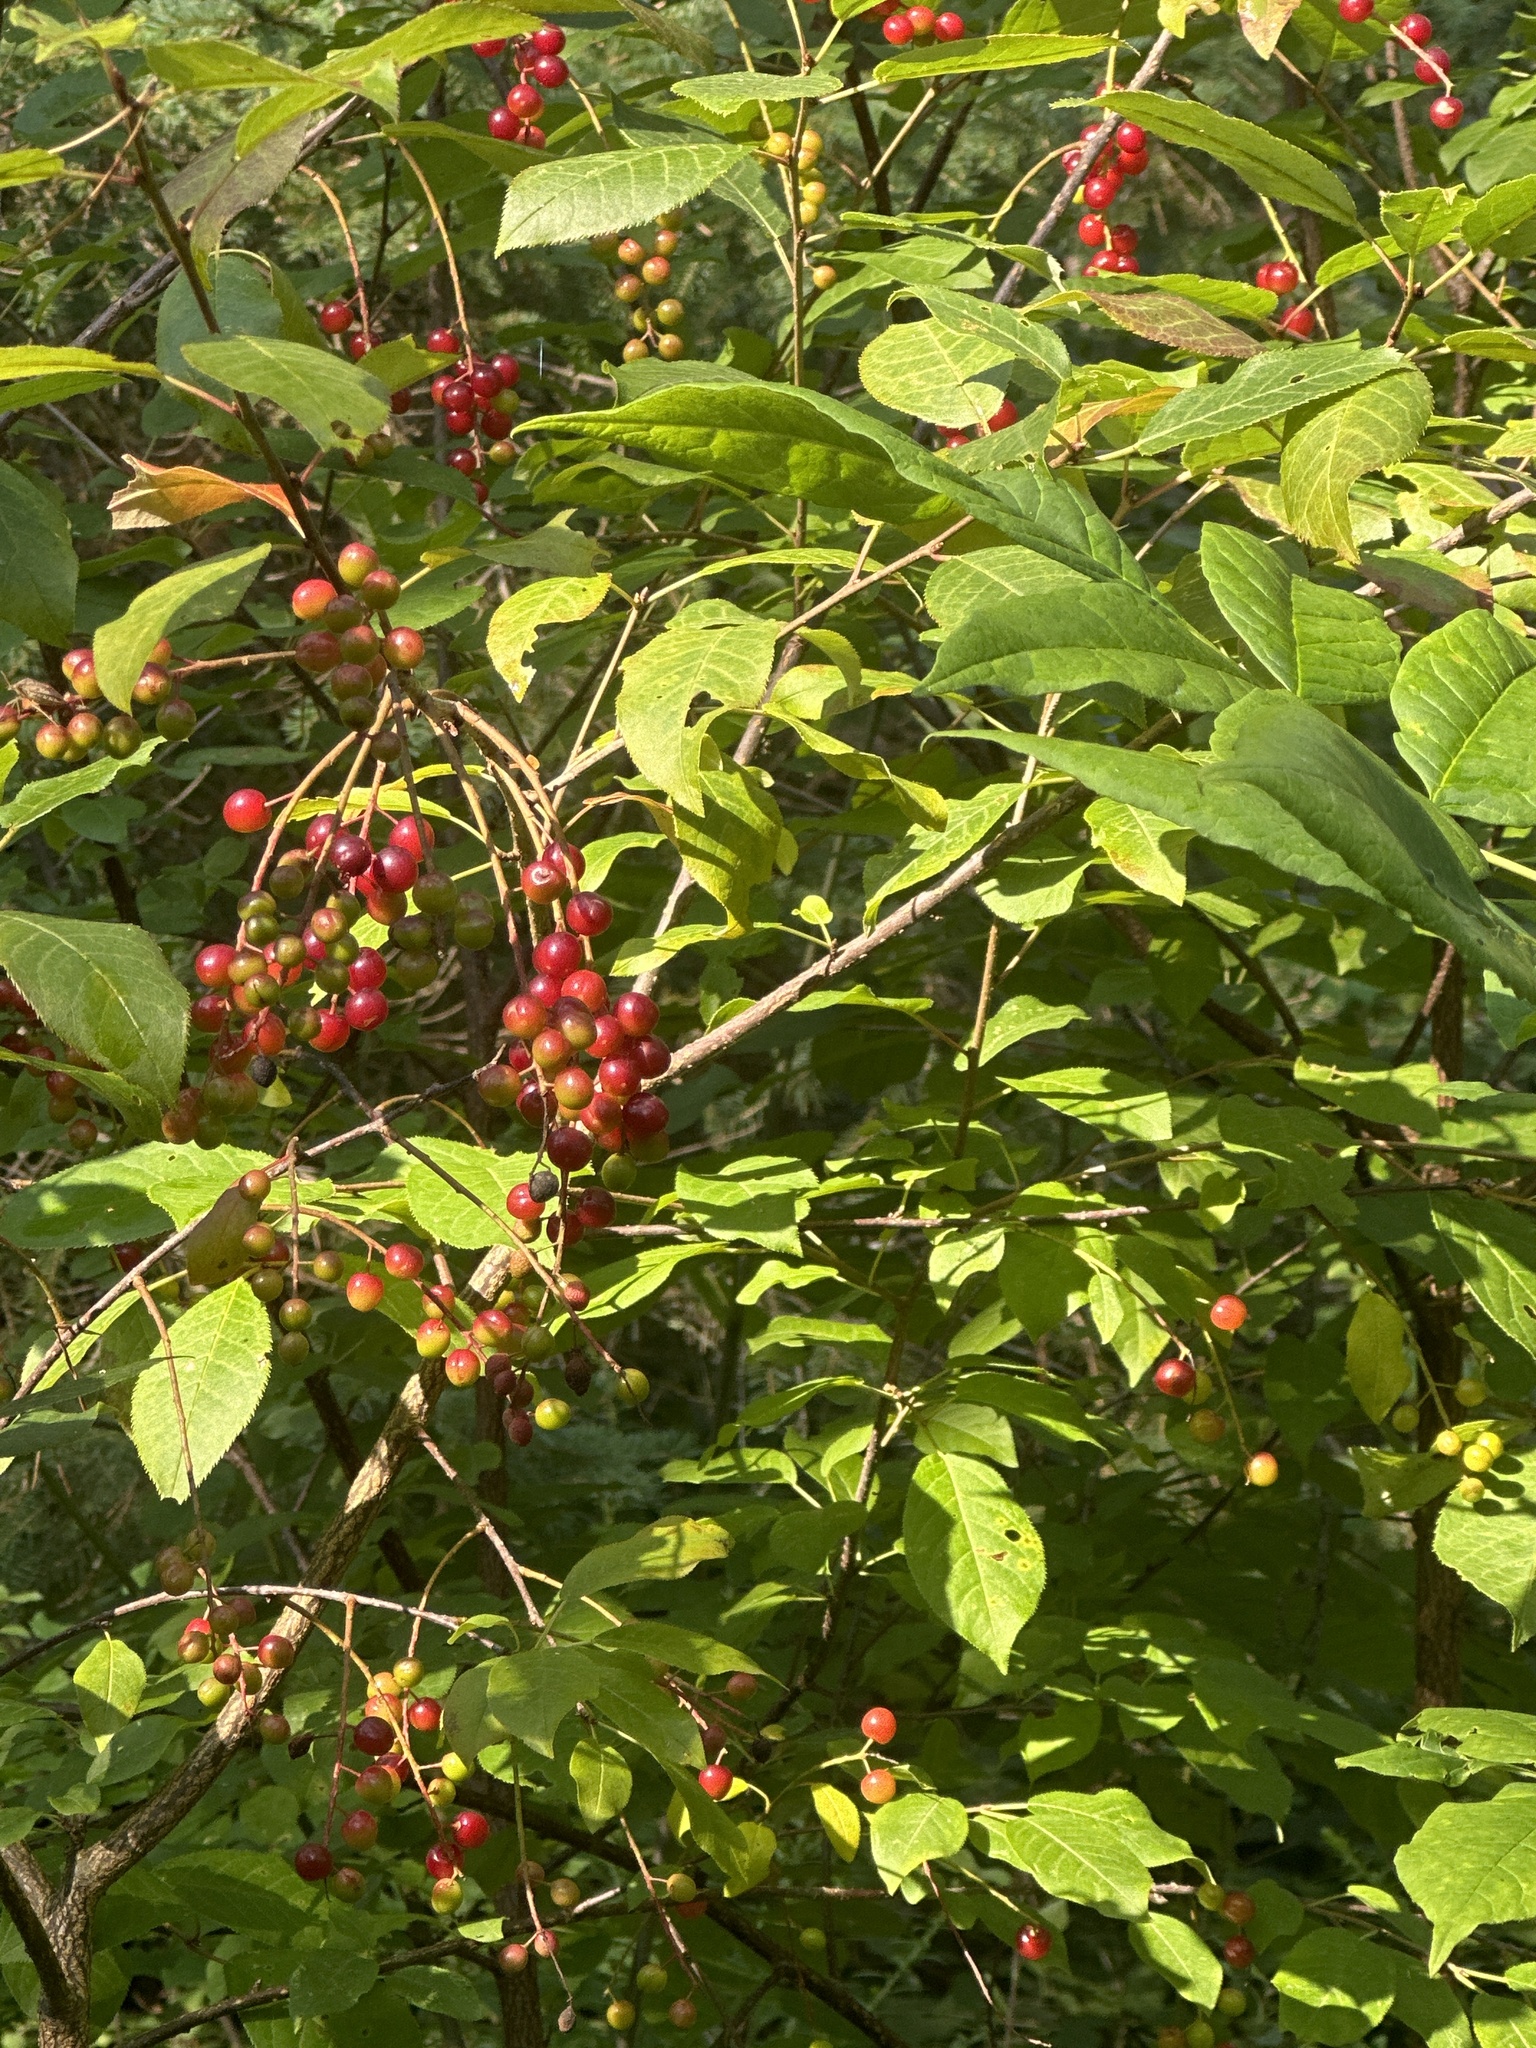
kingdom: Plantae
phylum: Tracheophyta
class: Magnoliopsida
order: Rosales
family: Rosaceae
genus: Prunus
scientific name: Prunus virginiana
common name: Chokecherry
